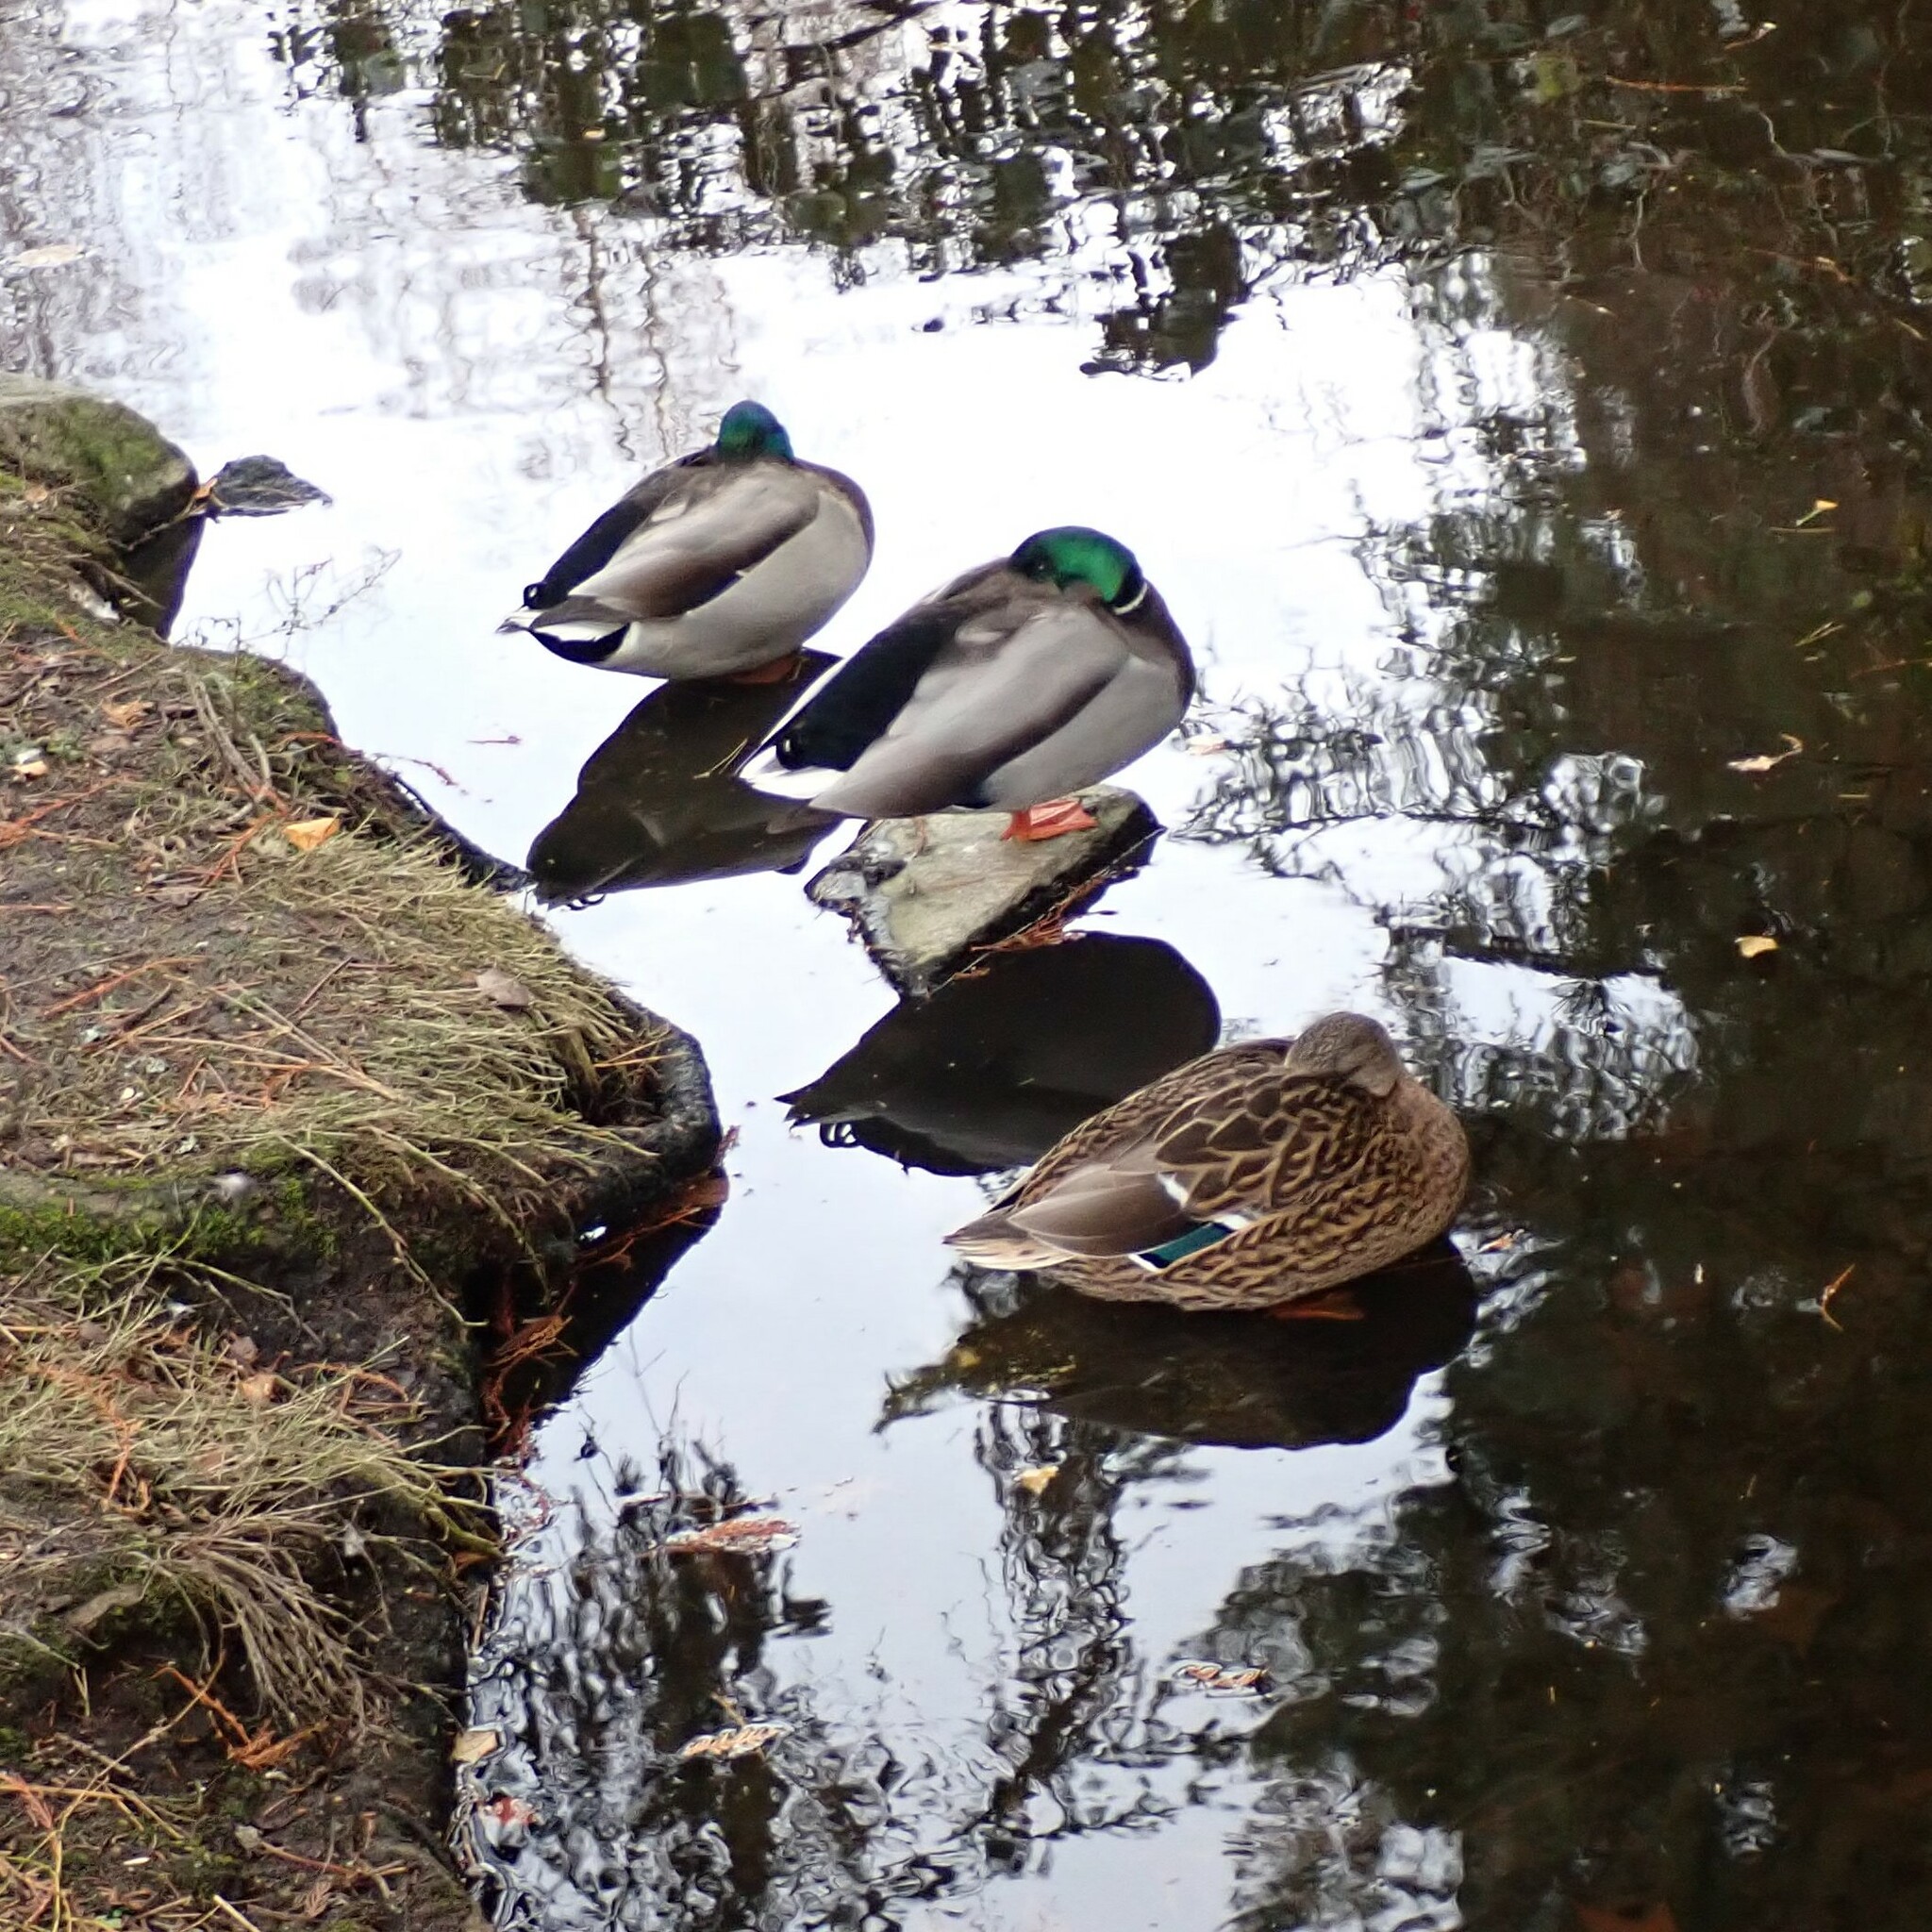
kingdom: Animalia
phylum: Chordata
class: Aves
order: Anseriformes
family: Anatidae
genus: Anas
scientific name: Anas platyrhynchos
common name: Mallard
